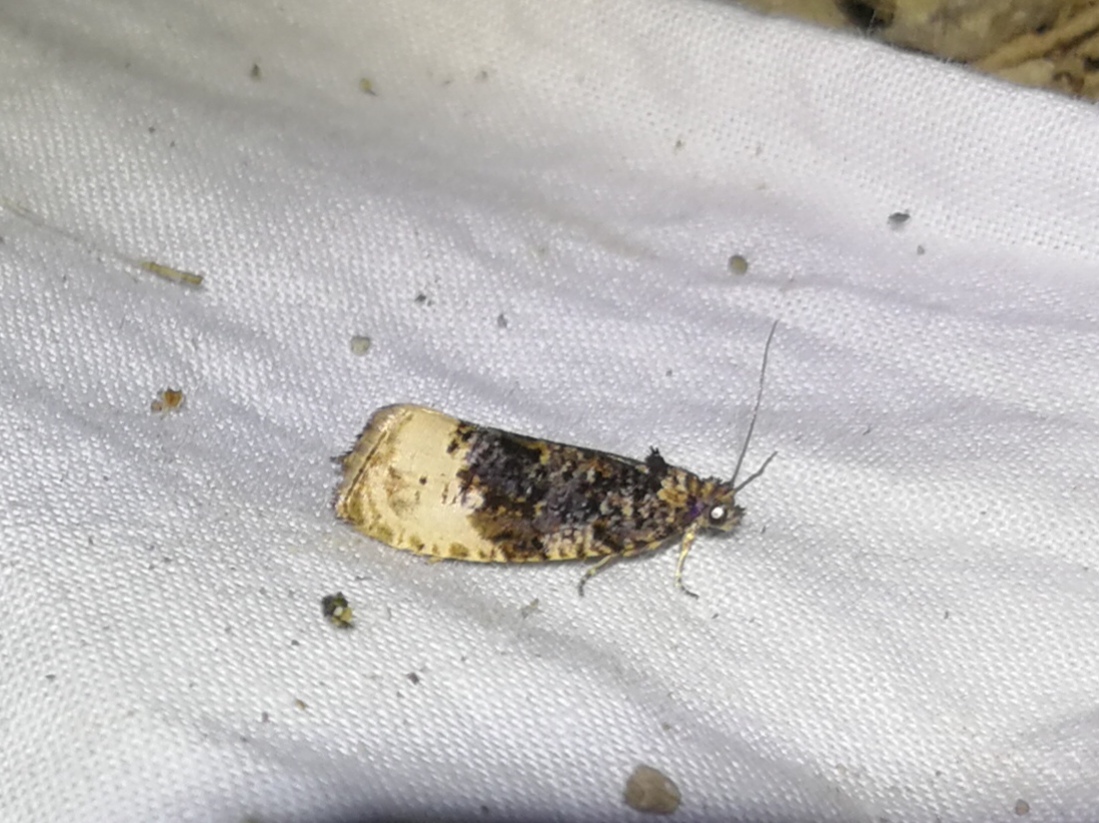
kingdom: Animalia
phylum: Arthropoda
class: Insecta
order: Lepidoptera
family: Tortricidae
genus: Hedya
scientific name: Hedya ochroleucana
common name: Buff-tipped marble
